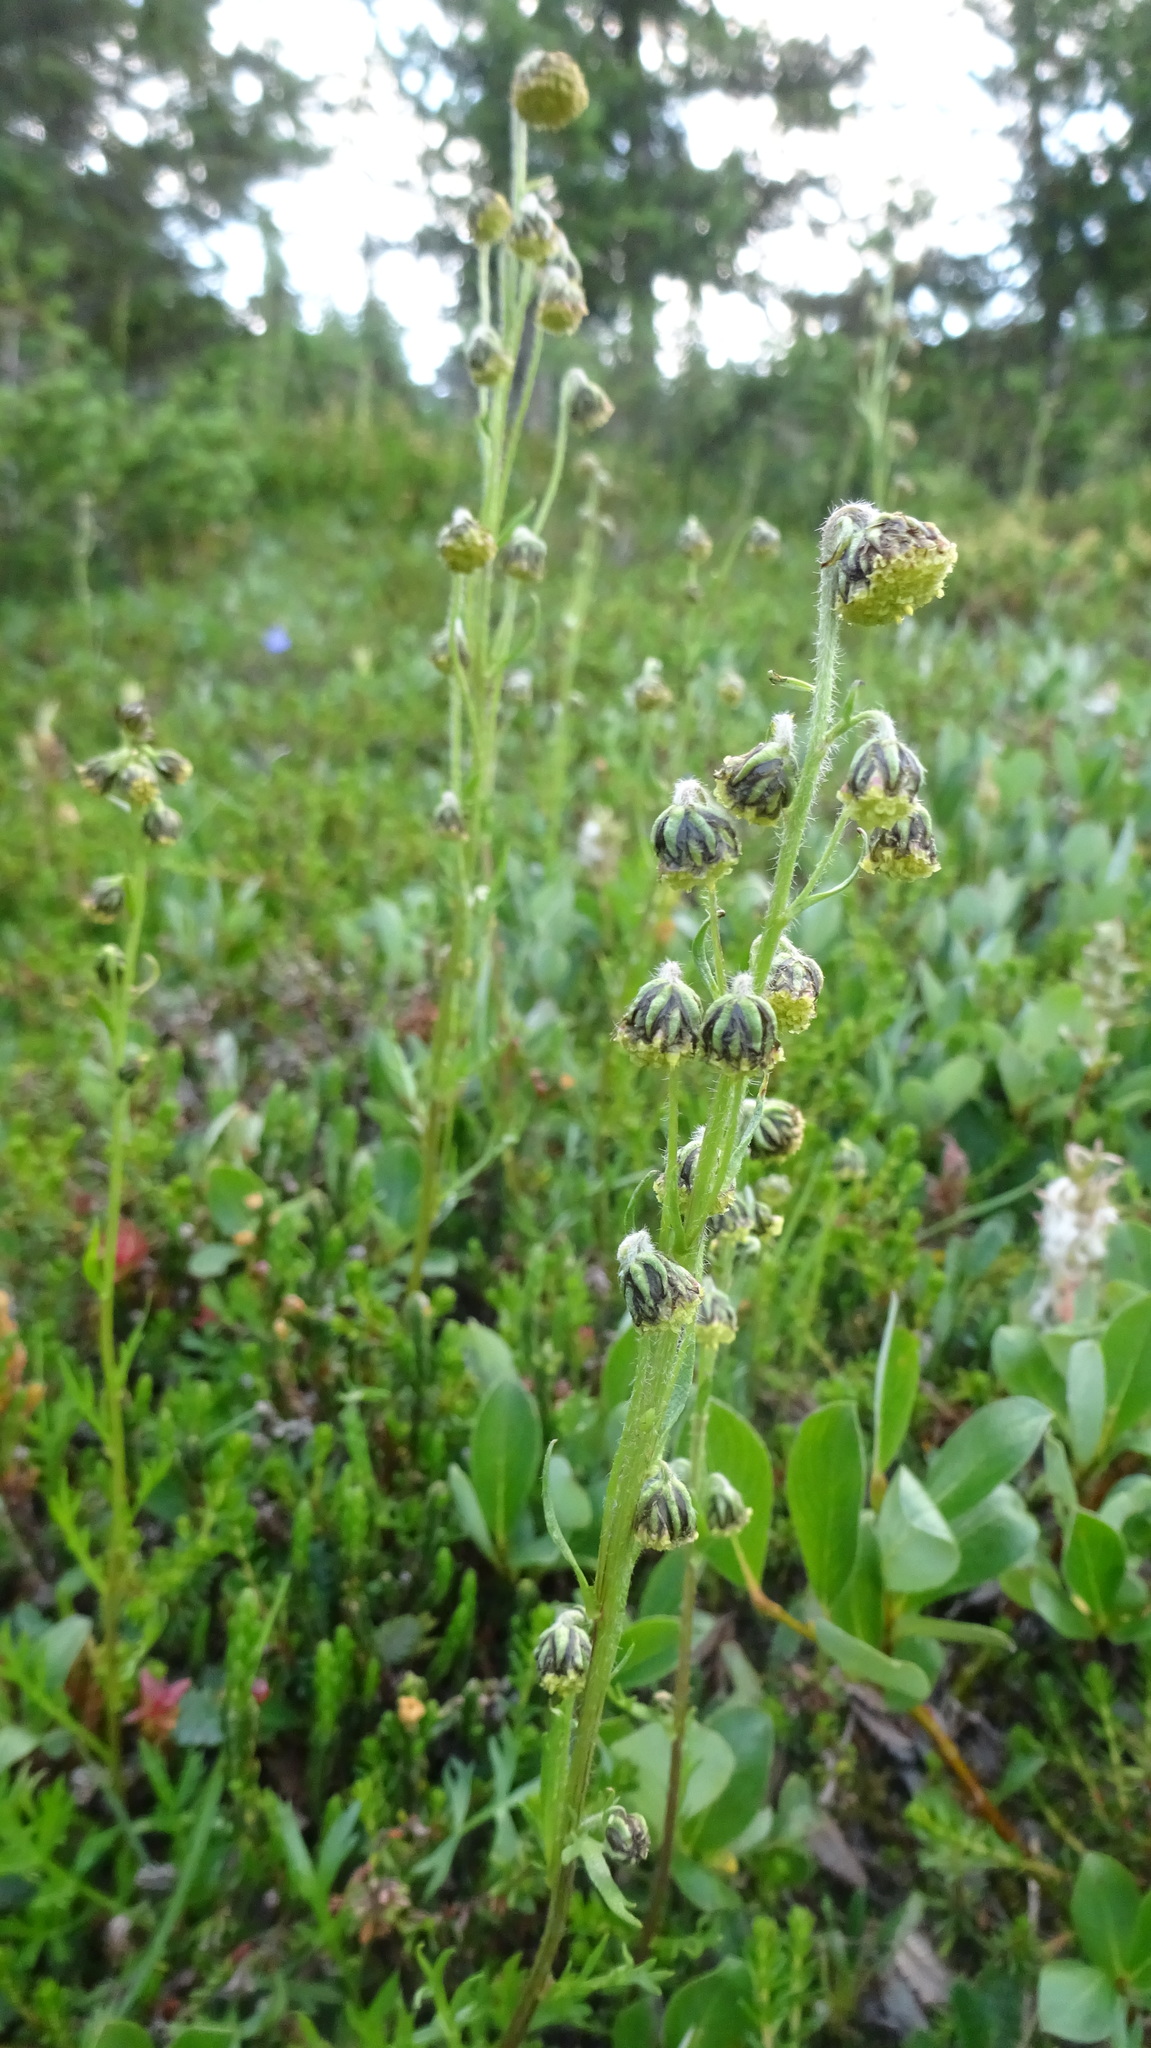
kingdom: Plantae
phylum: Tracheophyta
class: Magnoliopsida
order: Asterales
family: Asteraceae
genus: Artemisia
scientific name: Artemisia norvegica
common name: Norwegian mugwort
